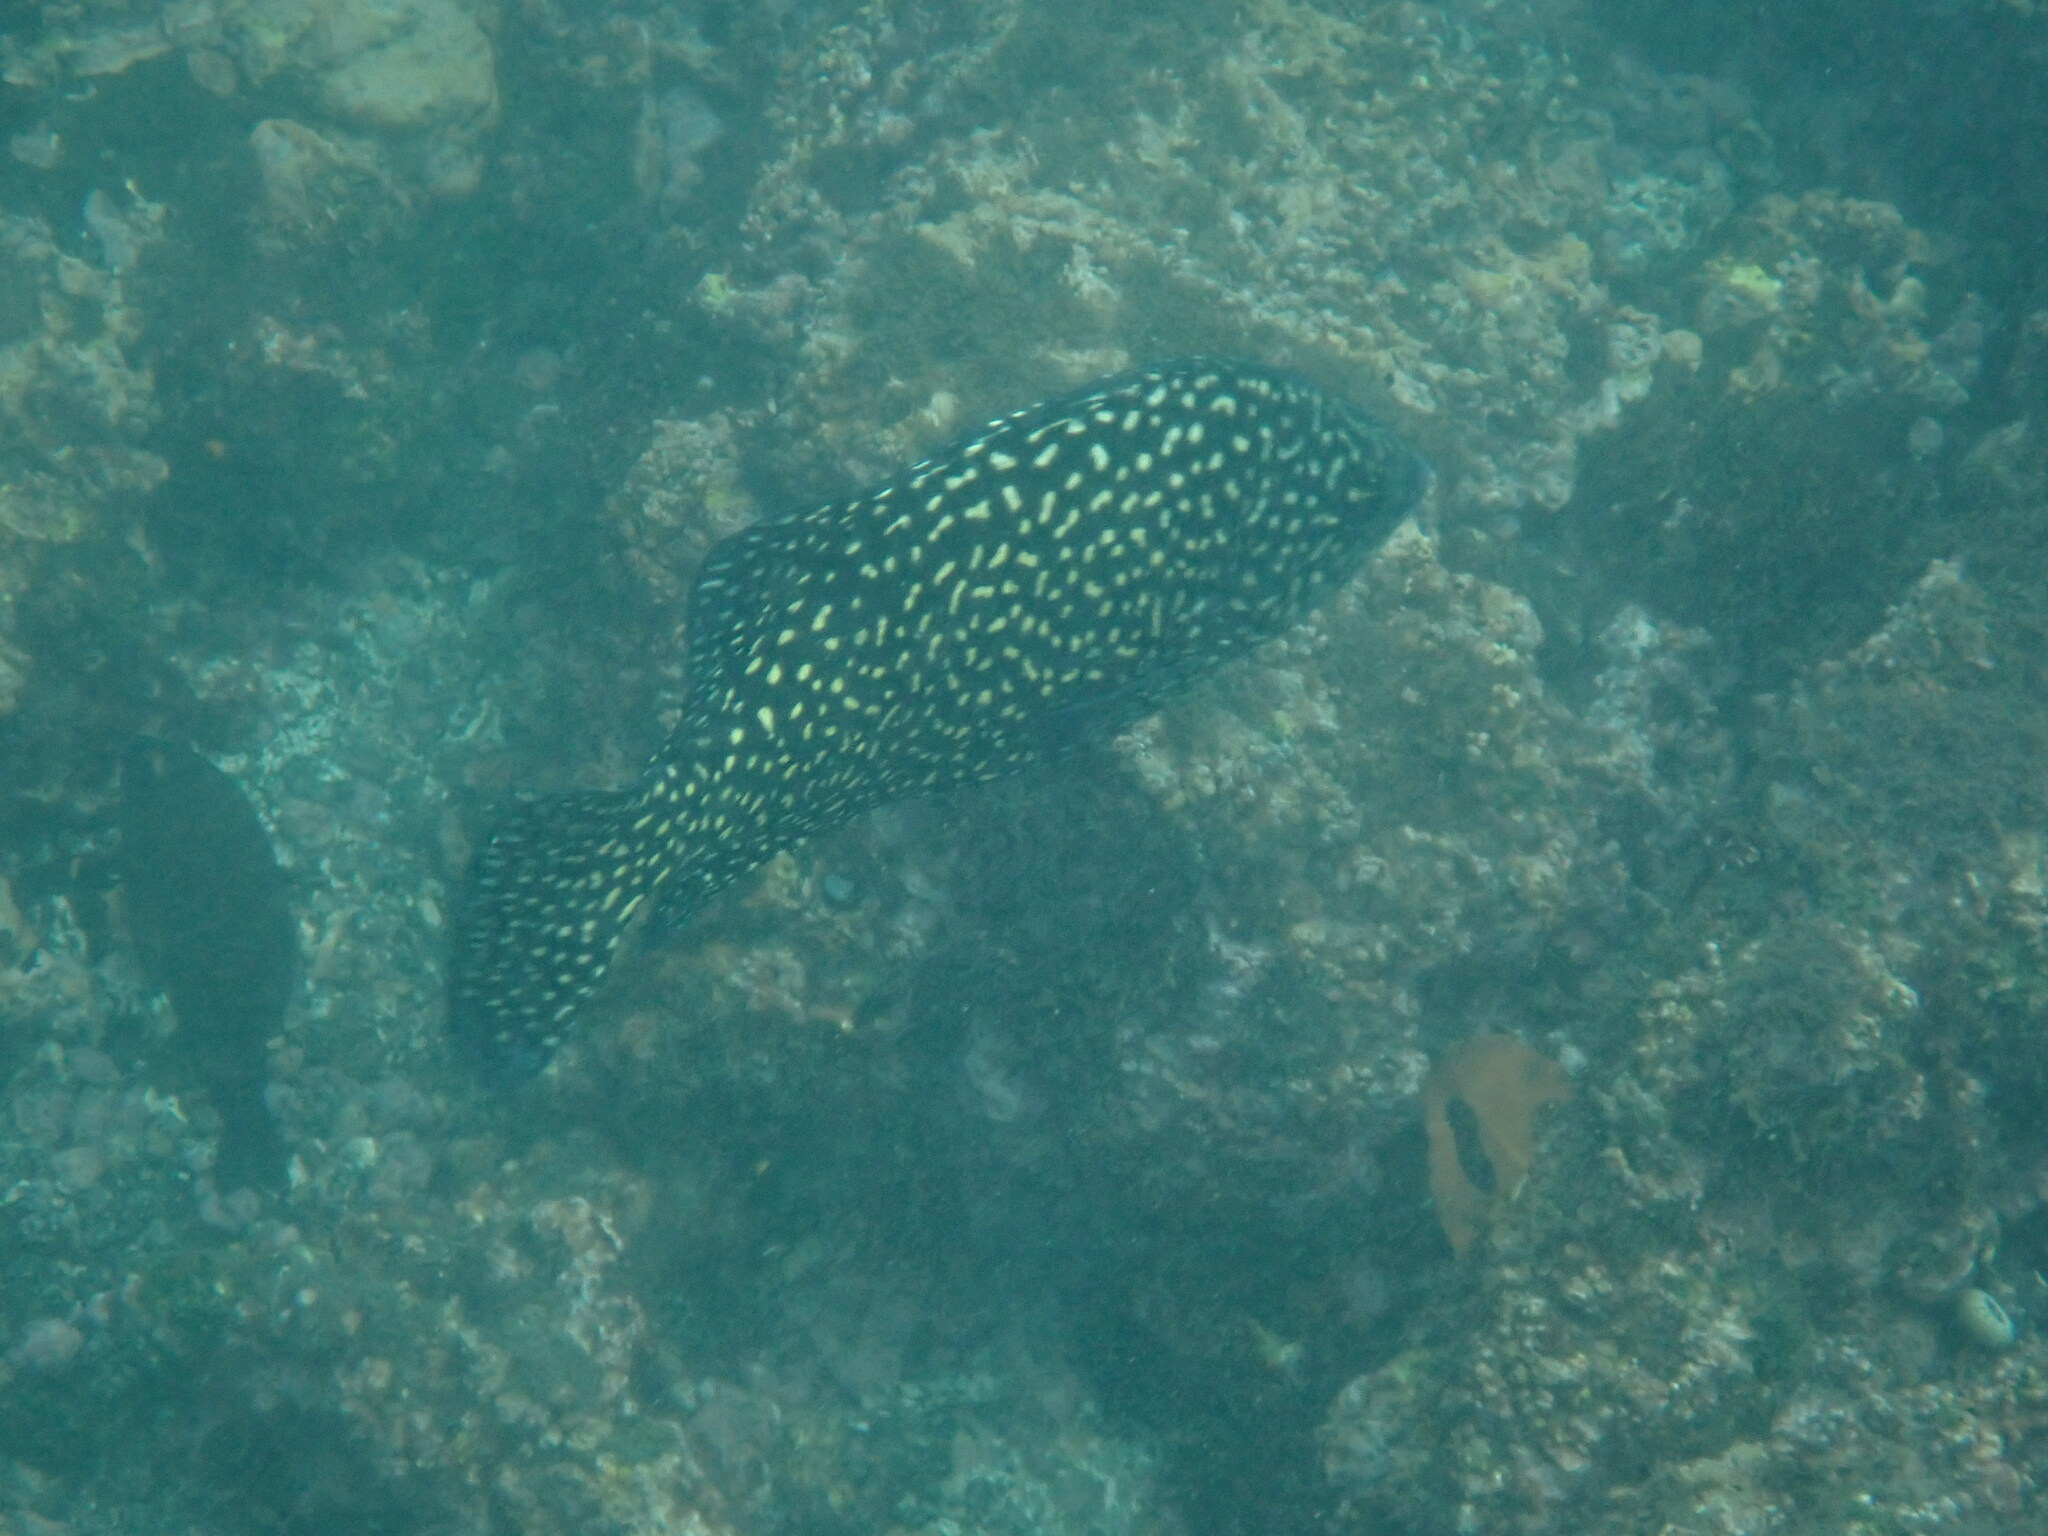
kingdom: Animalia
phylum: Chordata
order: Perciformes
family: Oplegnathidae
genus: Oplegnathus
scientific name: Oplegnathus insignis
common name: Pacific beakfish
